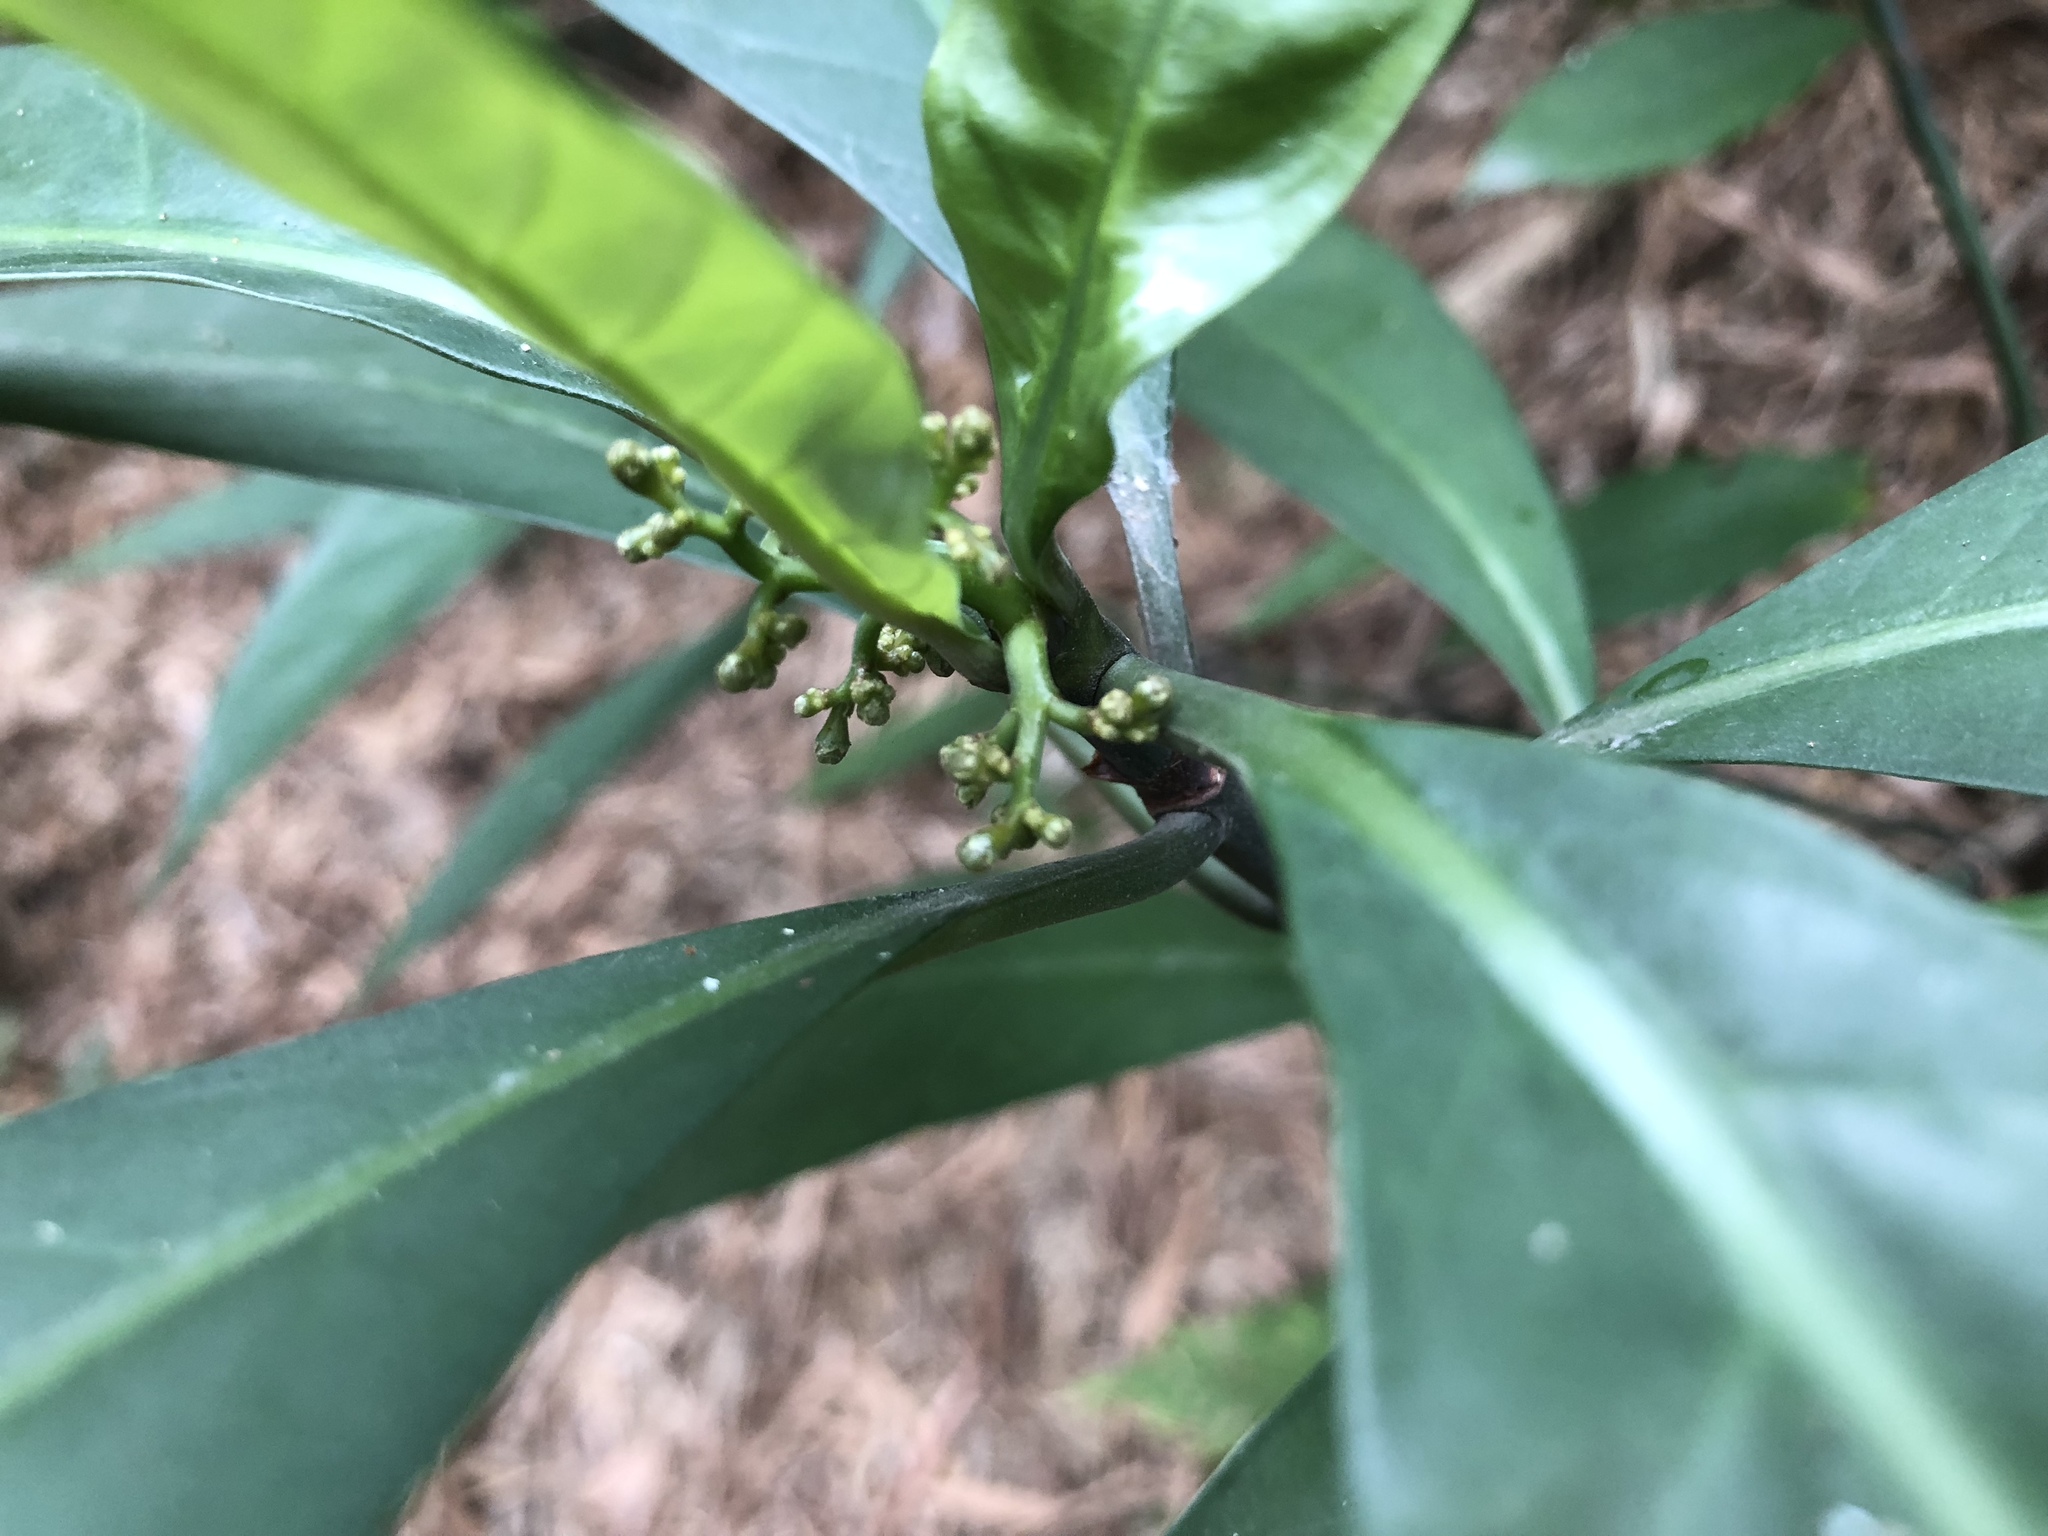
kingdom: Plantae
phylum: Tracheophyta
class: Magnoliopsida
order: Gentianales
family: Rubiaceae
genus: Psychotria
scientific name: Psychotria asiatica
